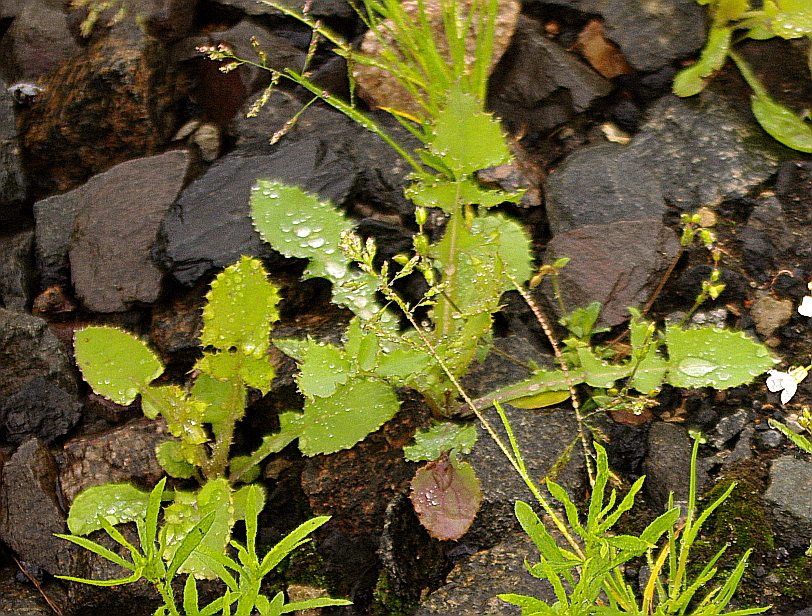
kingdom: Plantae
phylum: Tracheophyta
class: Magnoliopsida
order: Asterales
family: Asteraceae
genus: Sonchus
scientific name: Sonchus oleraceus
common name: Common sowthistle
